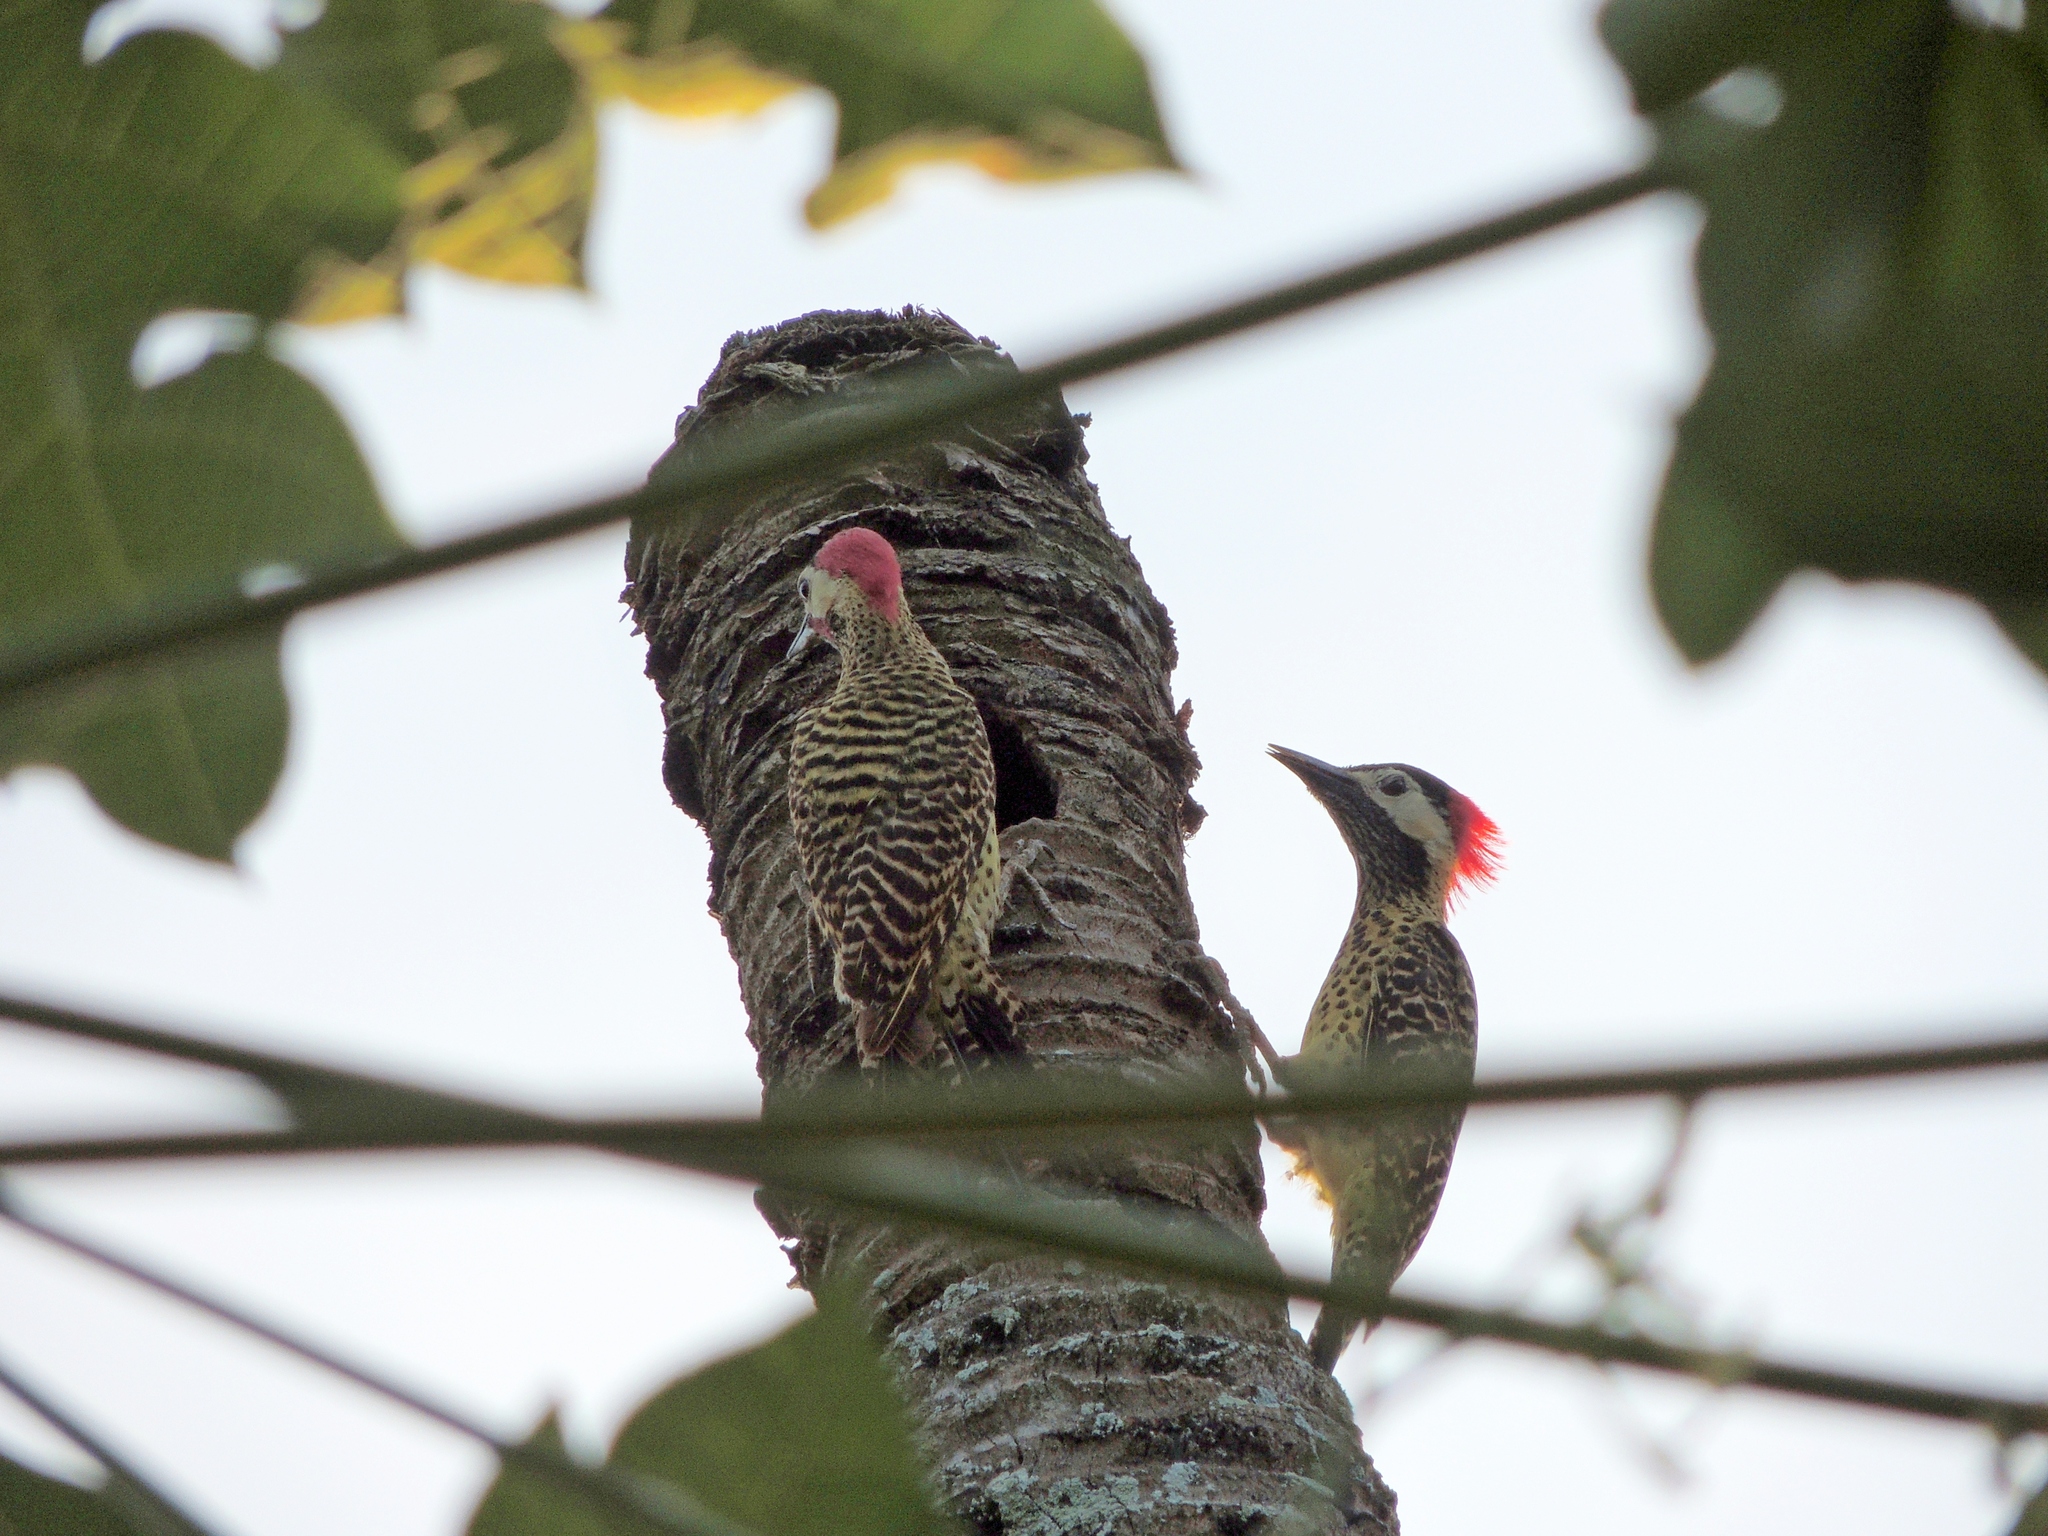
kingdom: Animalia
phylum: Chordata
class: Aves
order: Piciformes
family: Picidae
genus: Colaptes
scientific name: Colaptes melanochloros
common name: Green-barred woodpecker
